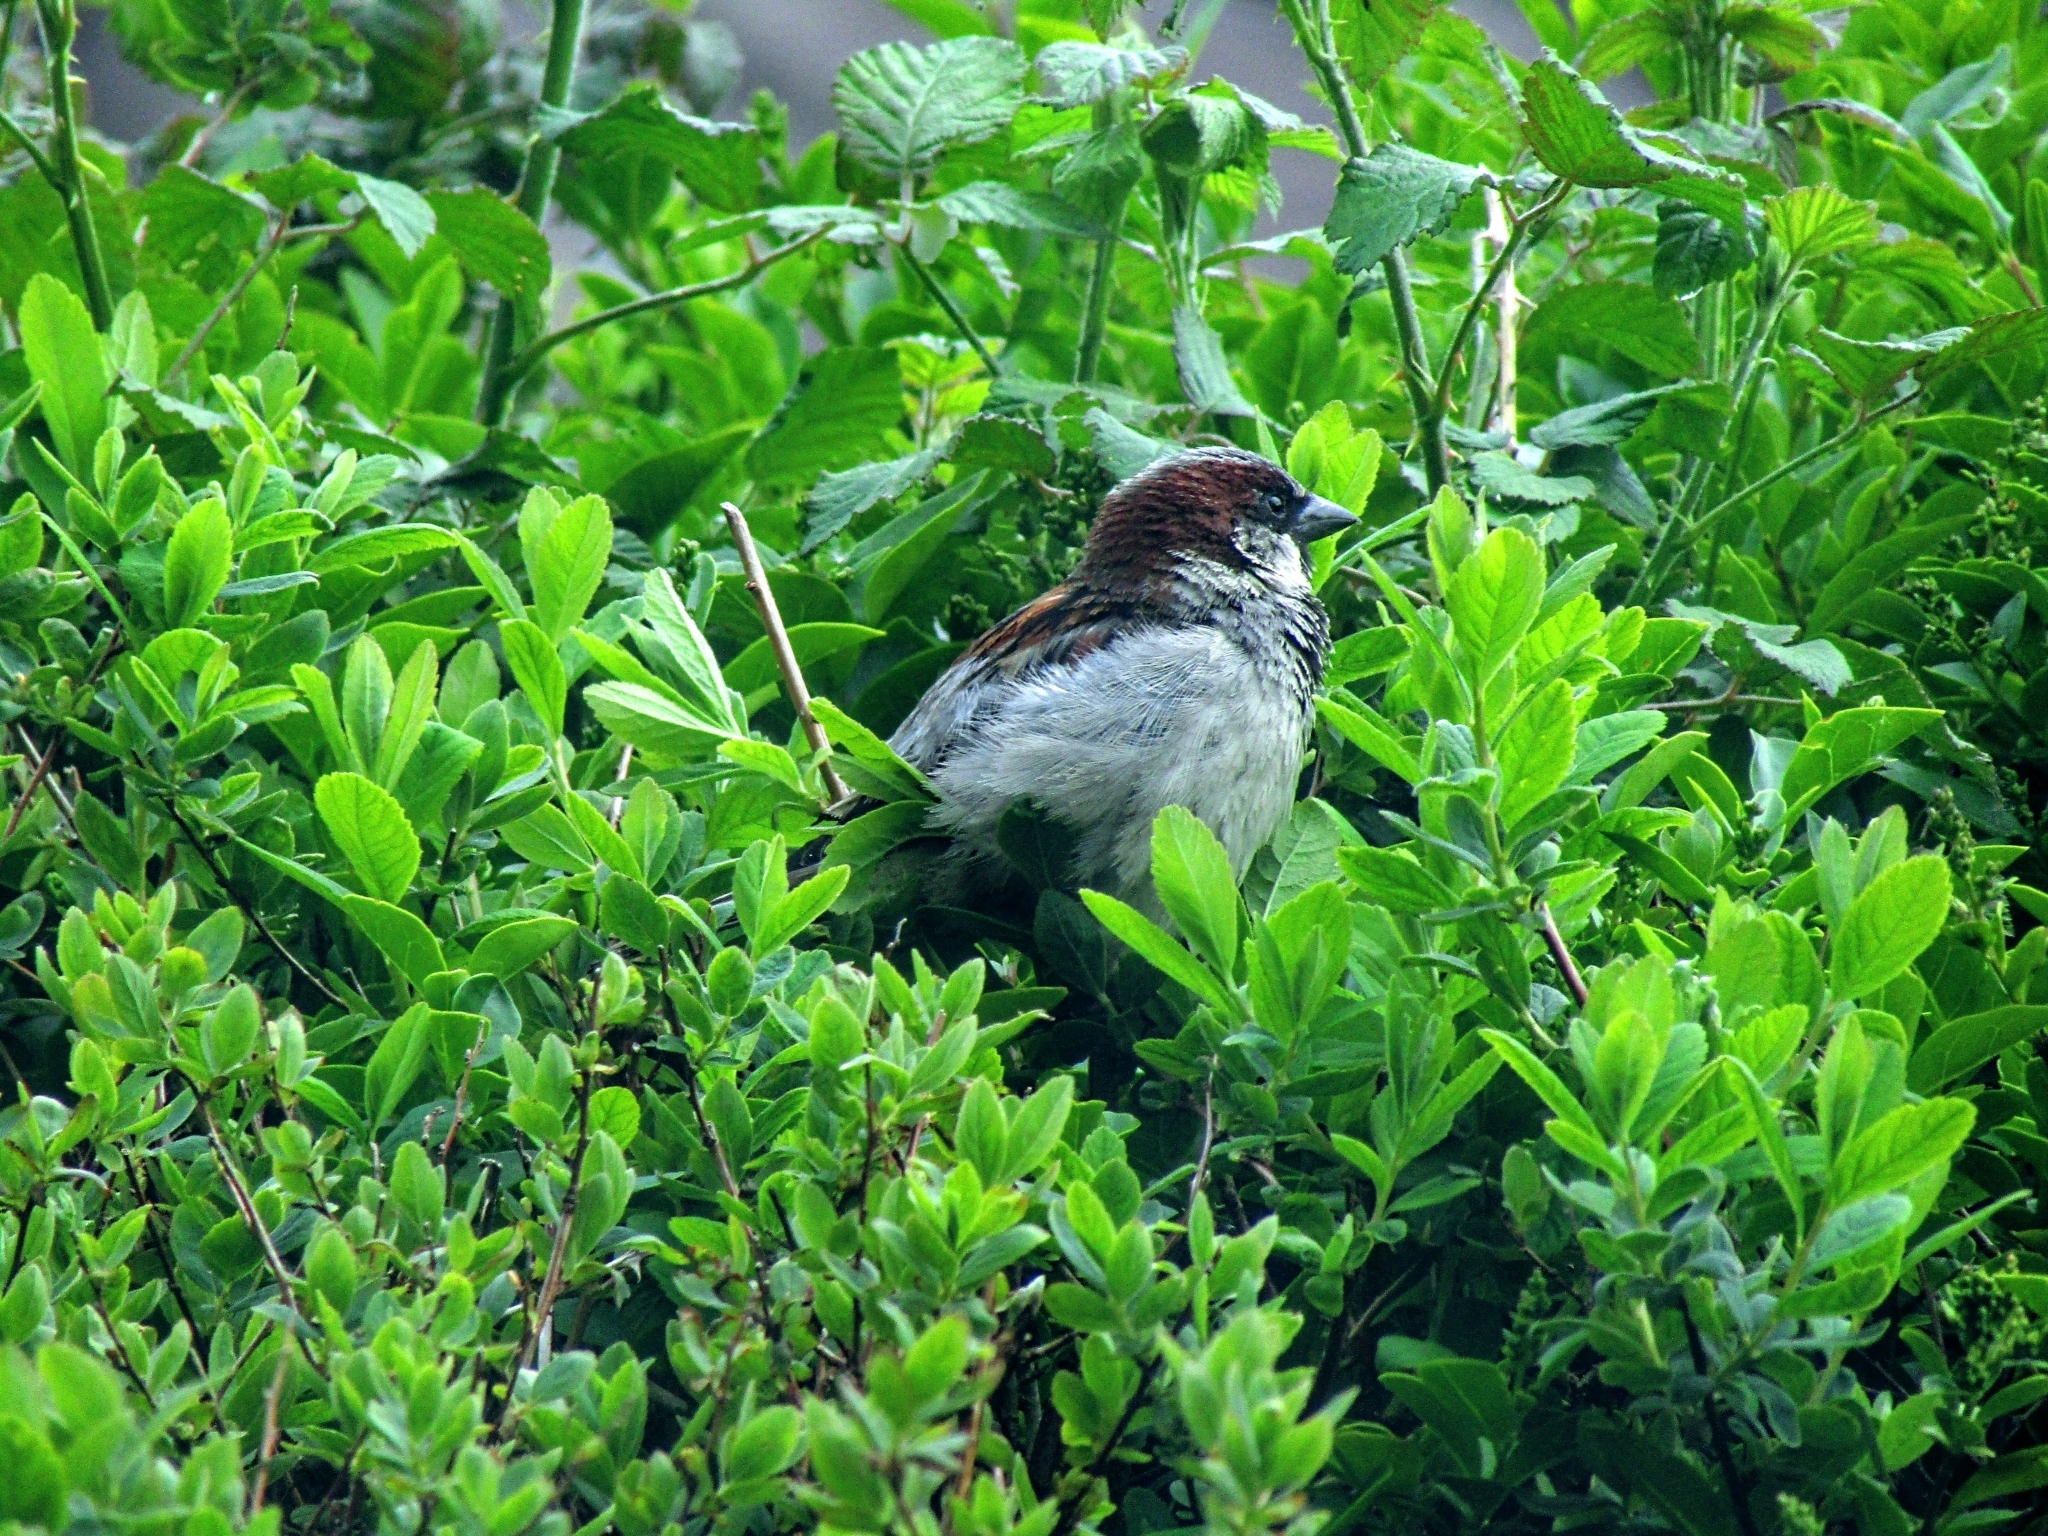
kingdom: Animalia
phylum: Chordata
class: Aves
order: Passeriformes
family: Passeridae
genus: Passer
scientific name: Passer domesticus
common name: House sparrow
